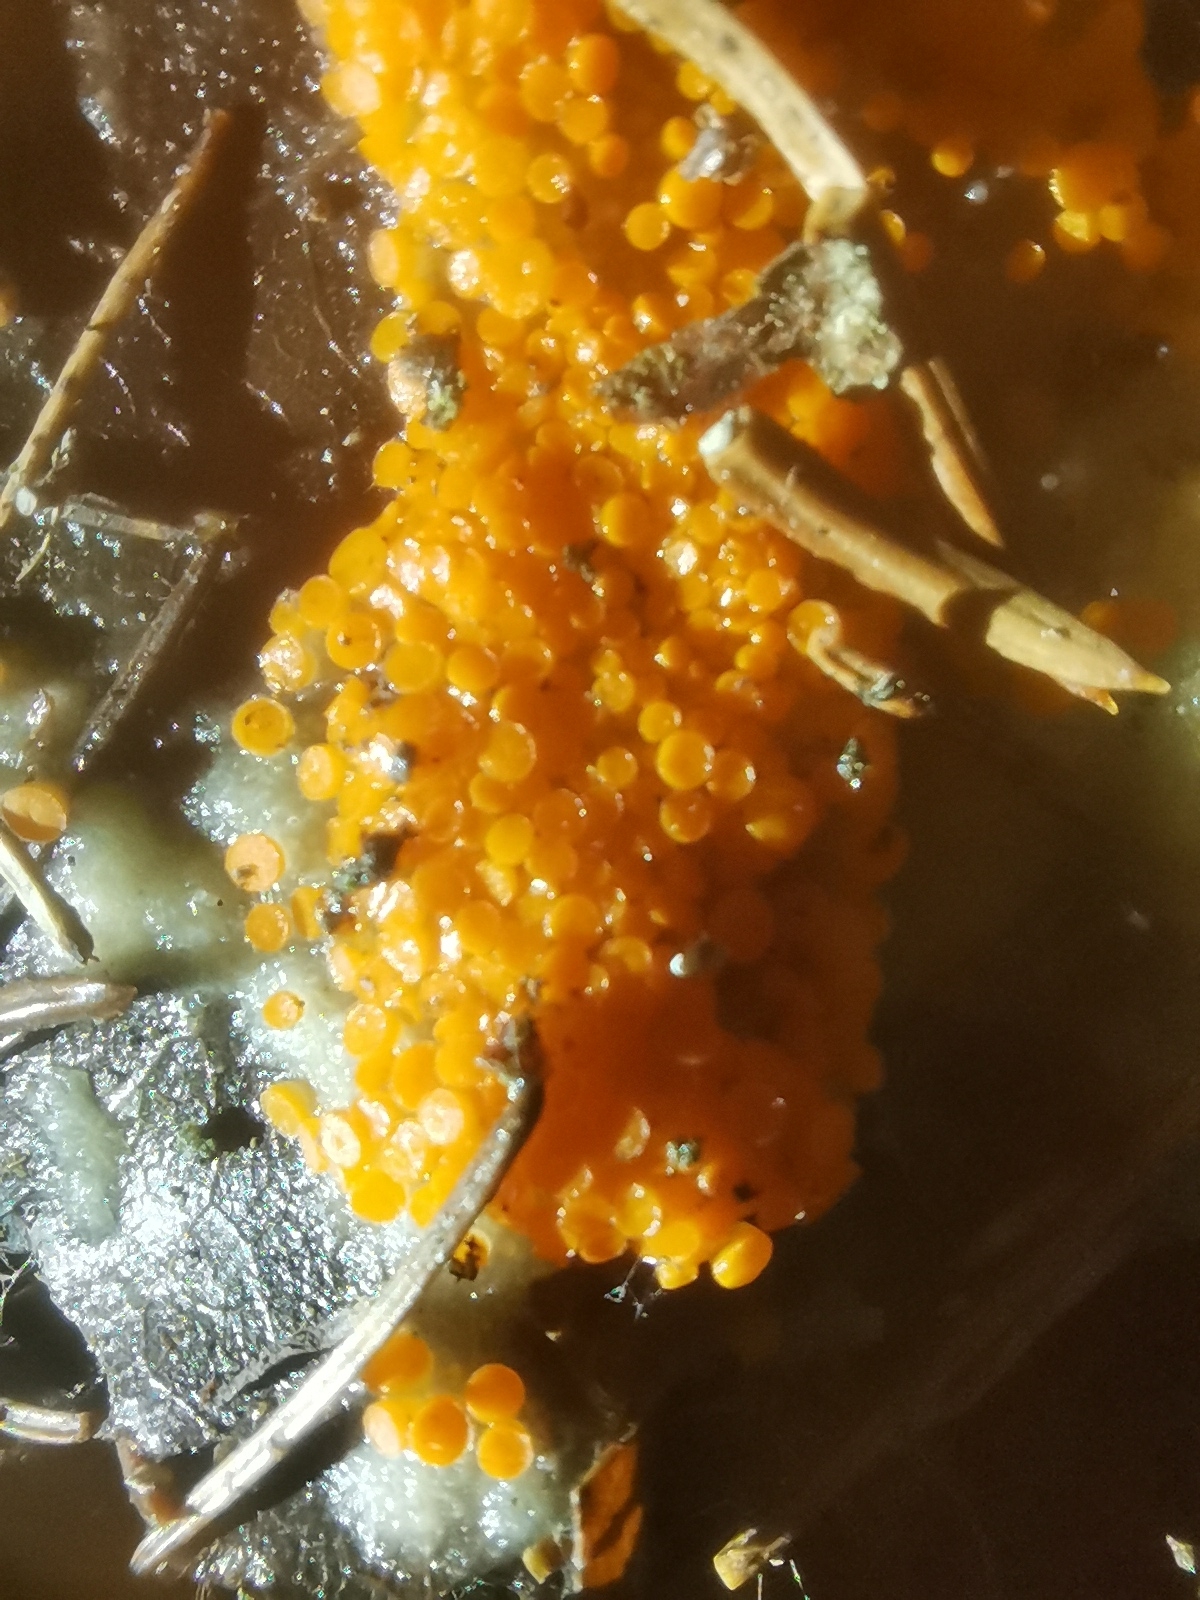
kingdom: Fungi
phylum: Ascomycota
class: Pezizomycetes
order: Pezizales
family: Pyronemataceae
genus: Byssonectria
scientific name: Byssonectria terrestris
